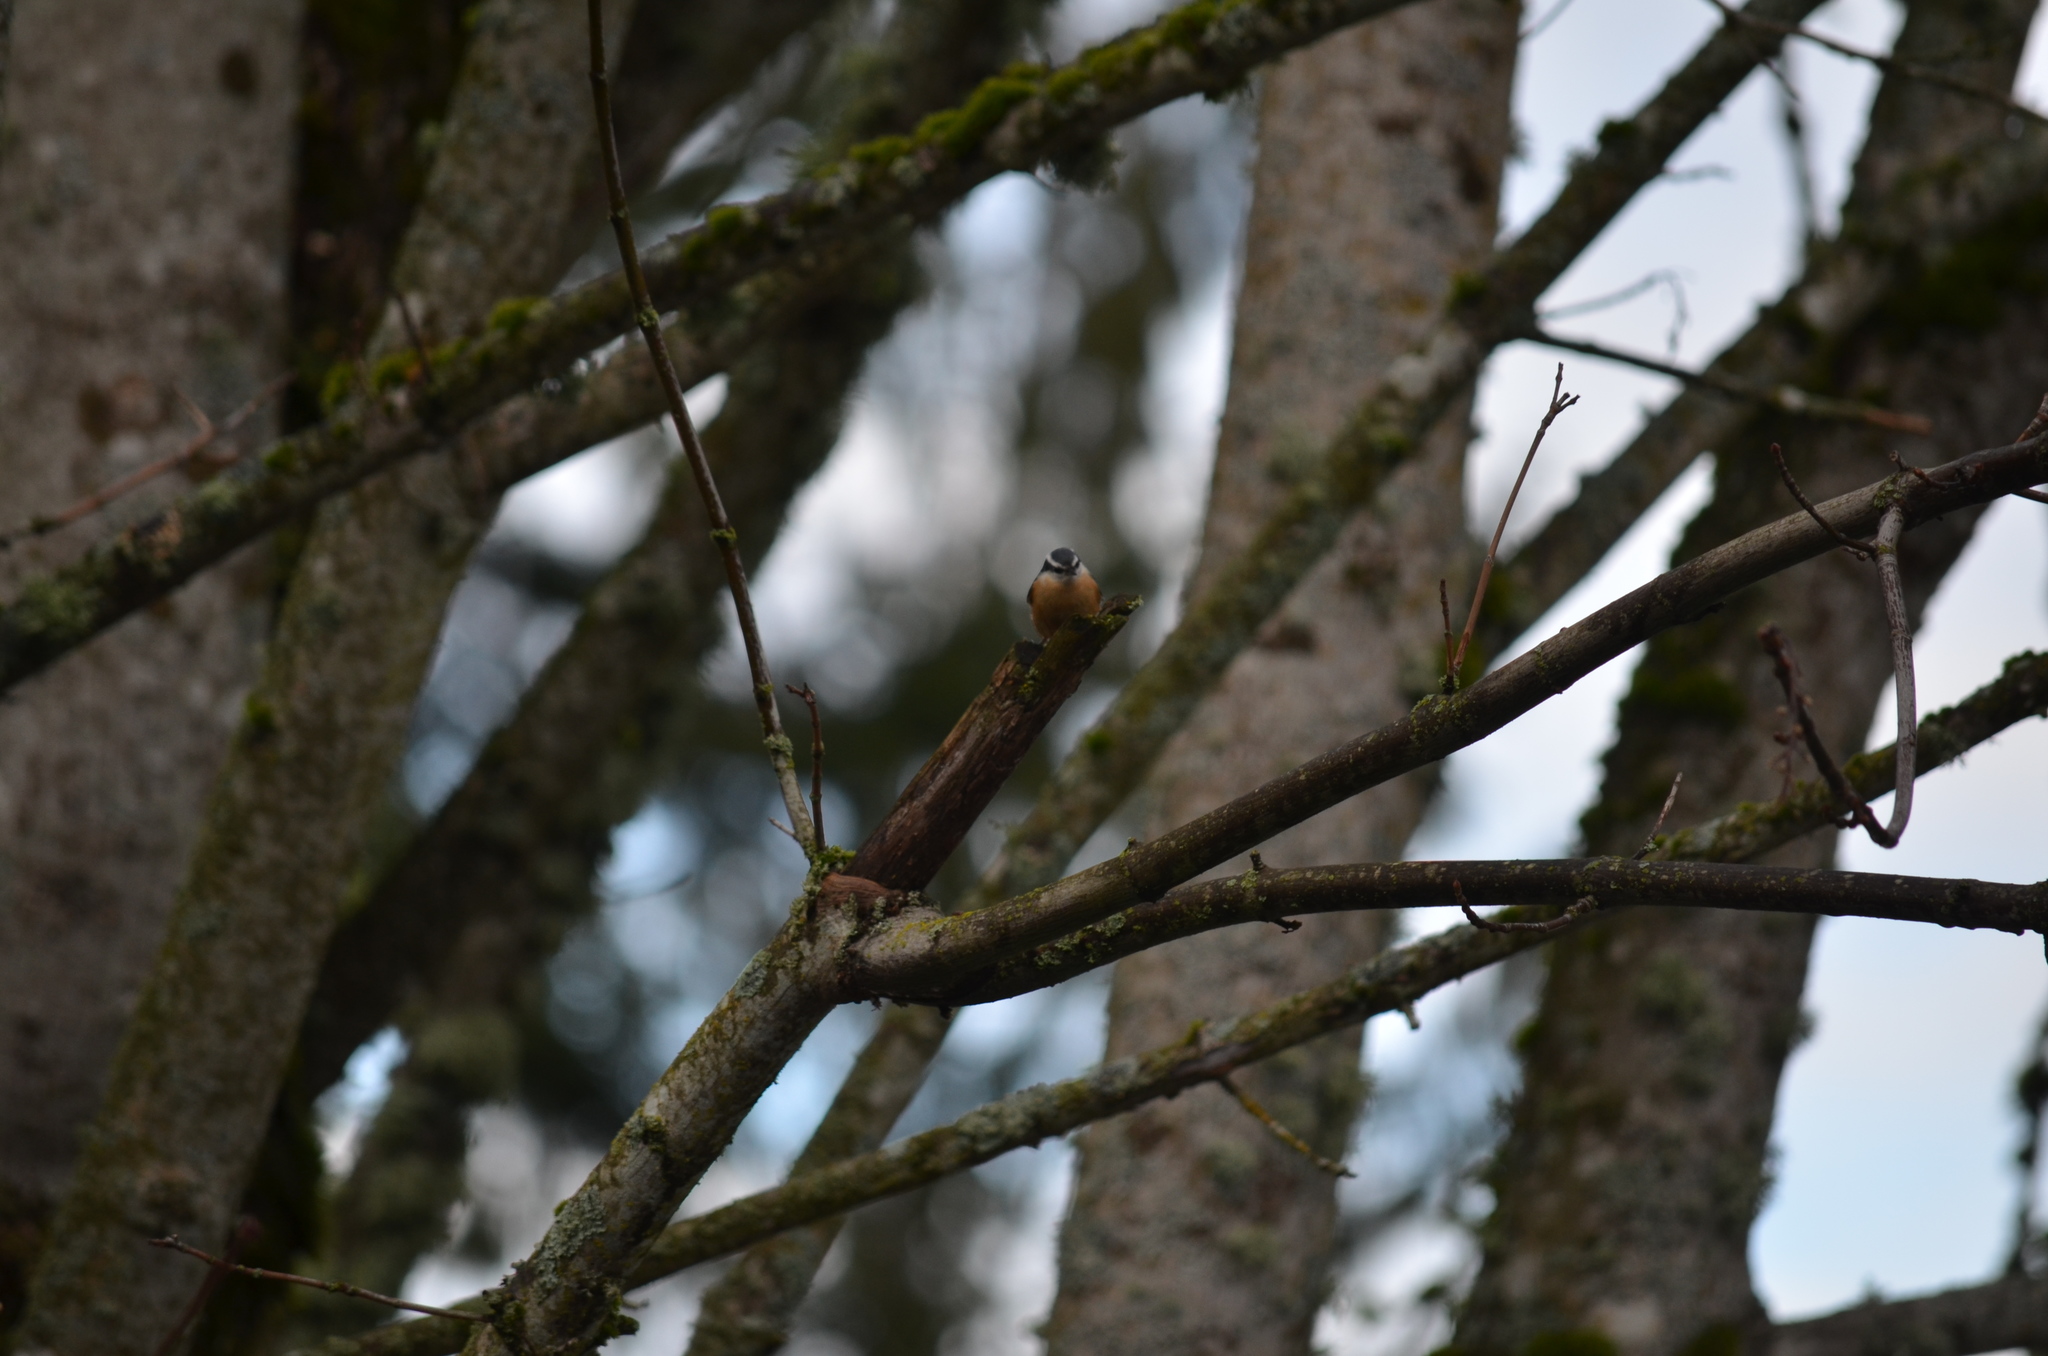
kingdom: Animalia
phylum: Chordata
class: Aves
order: Passeriformes
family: Sittidae
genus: Sitta
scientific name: Sitta canadensis
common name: Red-breasted nuthatch
